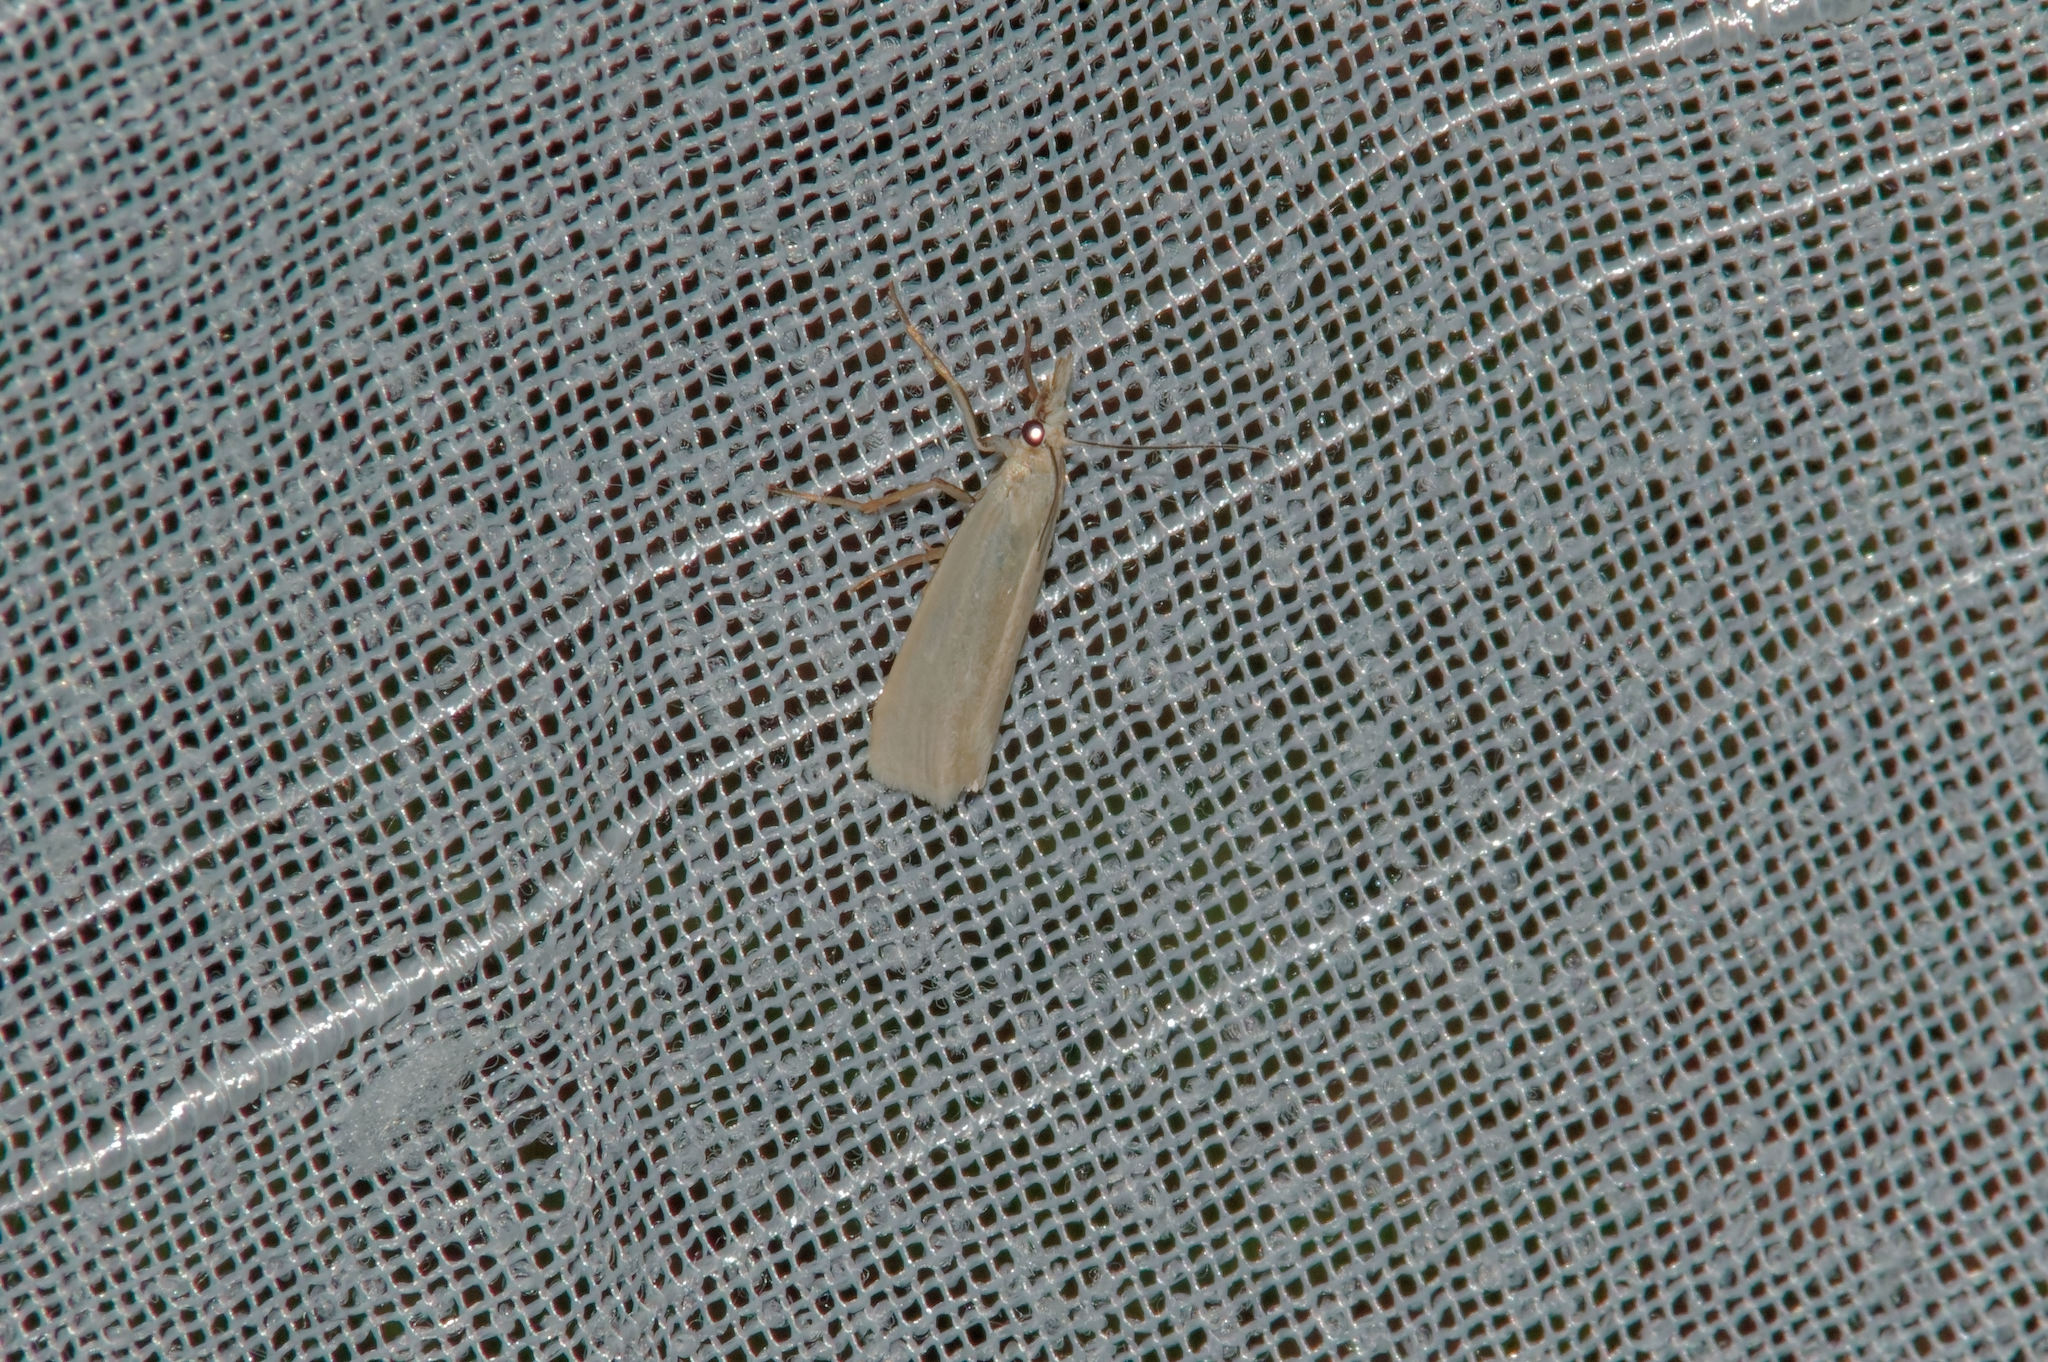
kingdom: Animalia
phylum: Arthropoda
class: Insecta
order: Lepidoptera
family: Crambidae
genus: Crambus
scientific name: Crambus perlellus
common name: Yellow satin veneer
